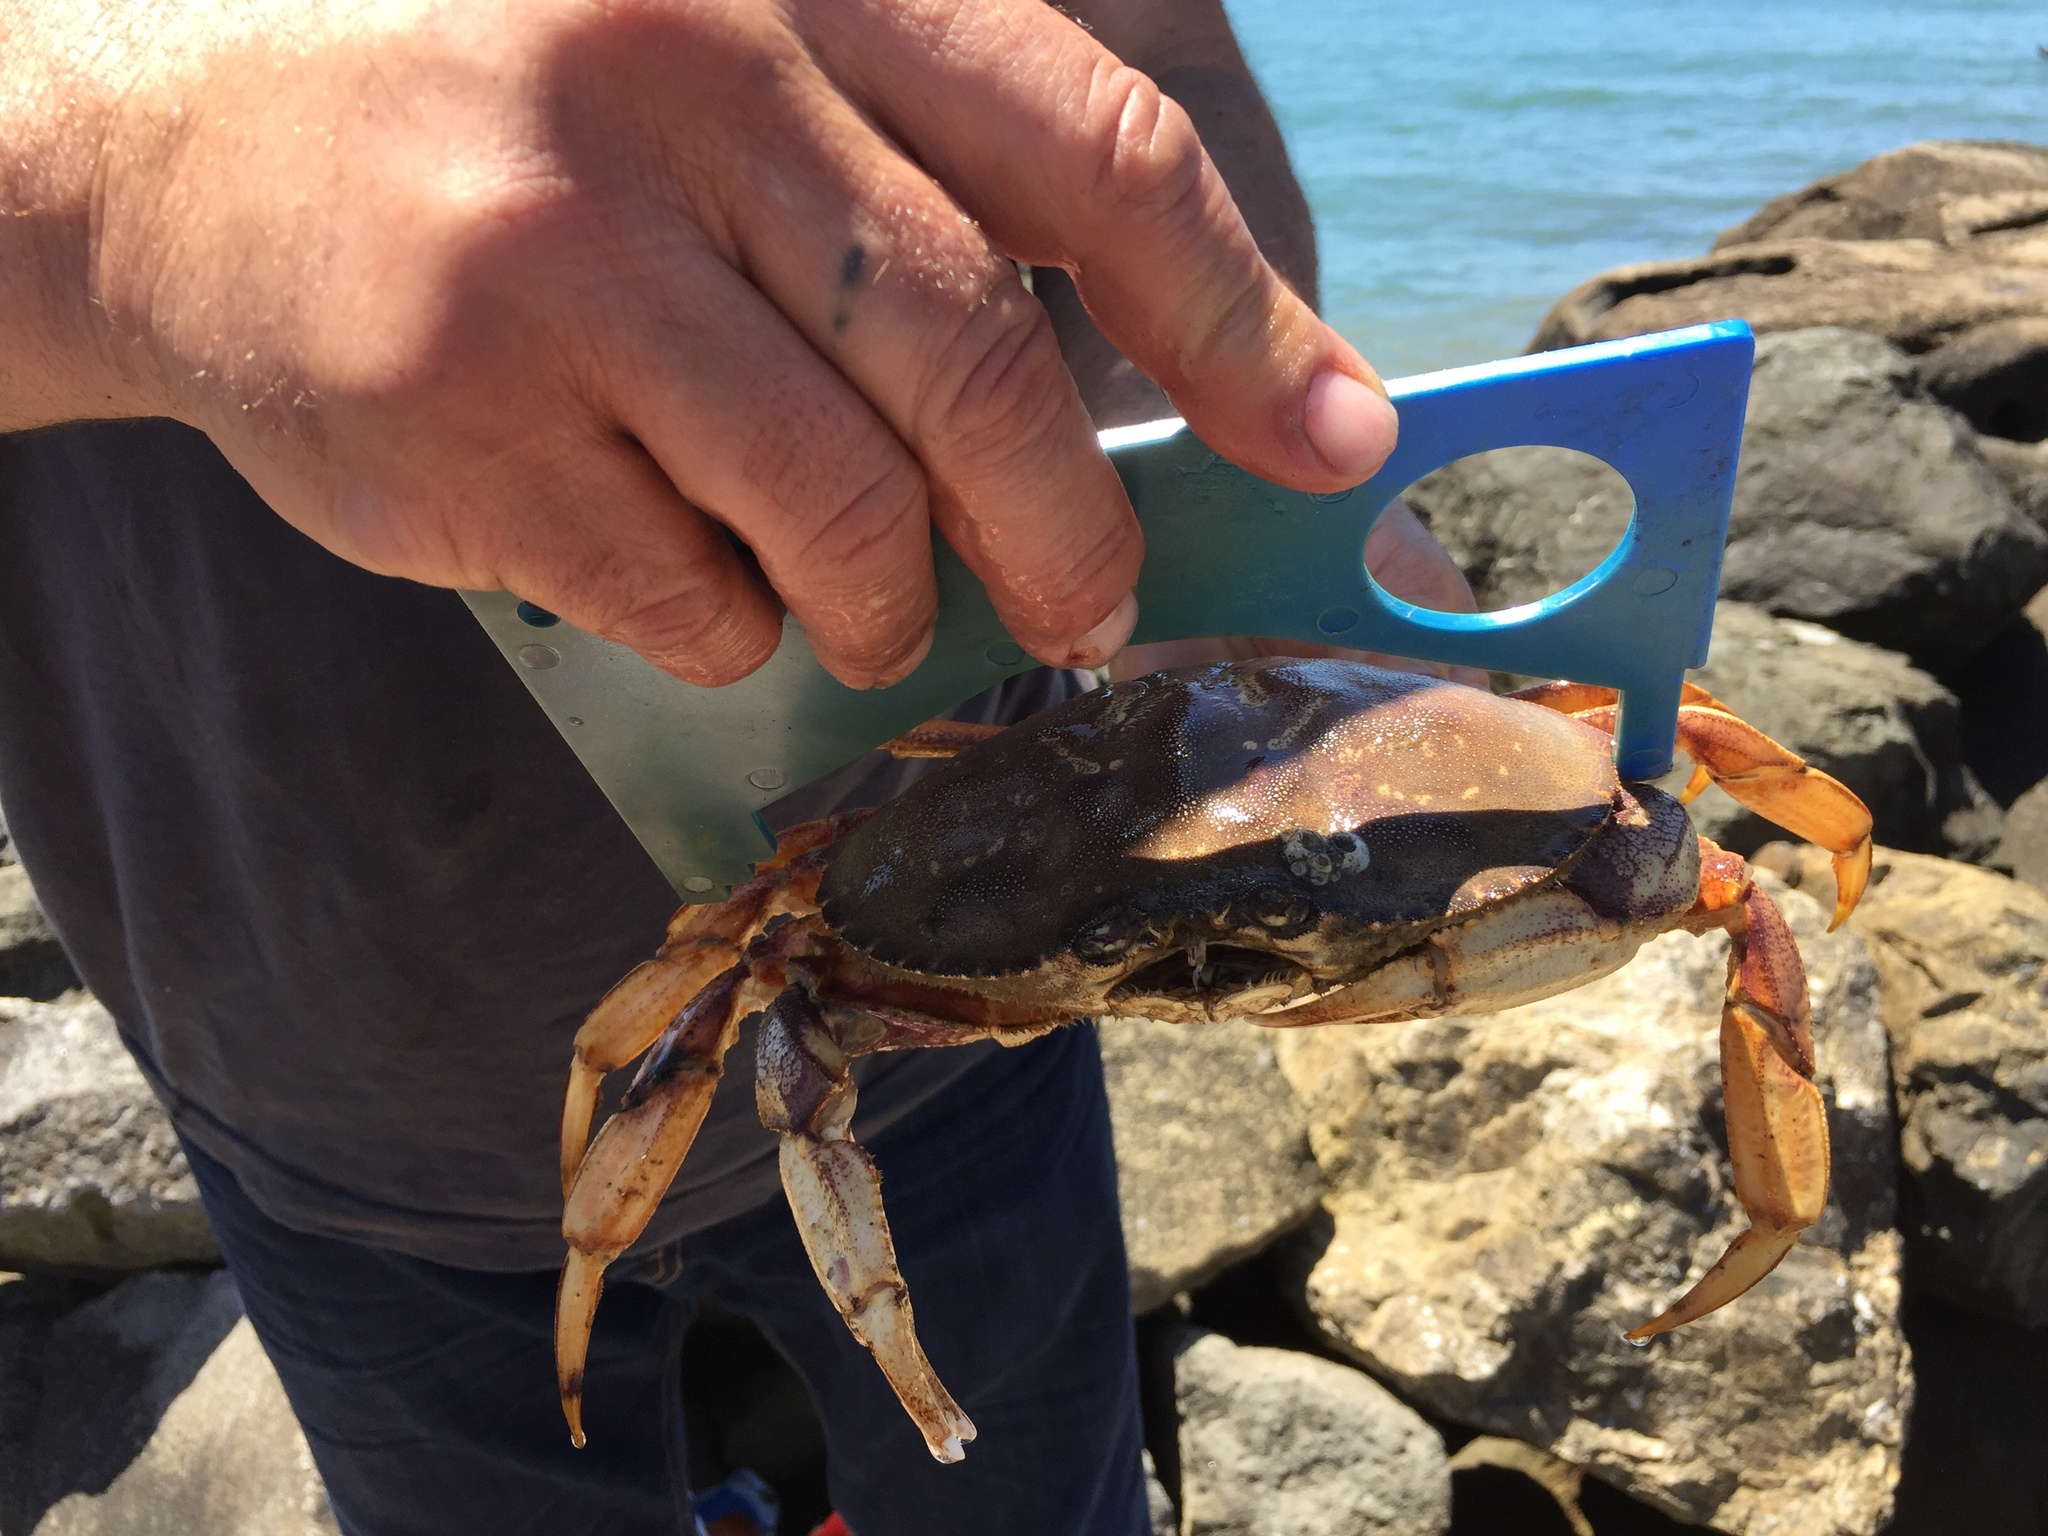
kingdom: Animalia
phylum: Arthropoda
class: Malacostraca
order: Decapoda
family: Cancridae
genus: Metacarcinus
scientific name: Metacarcinus magister
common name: Californian crab
